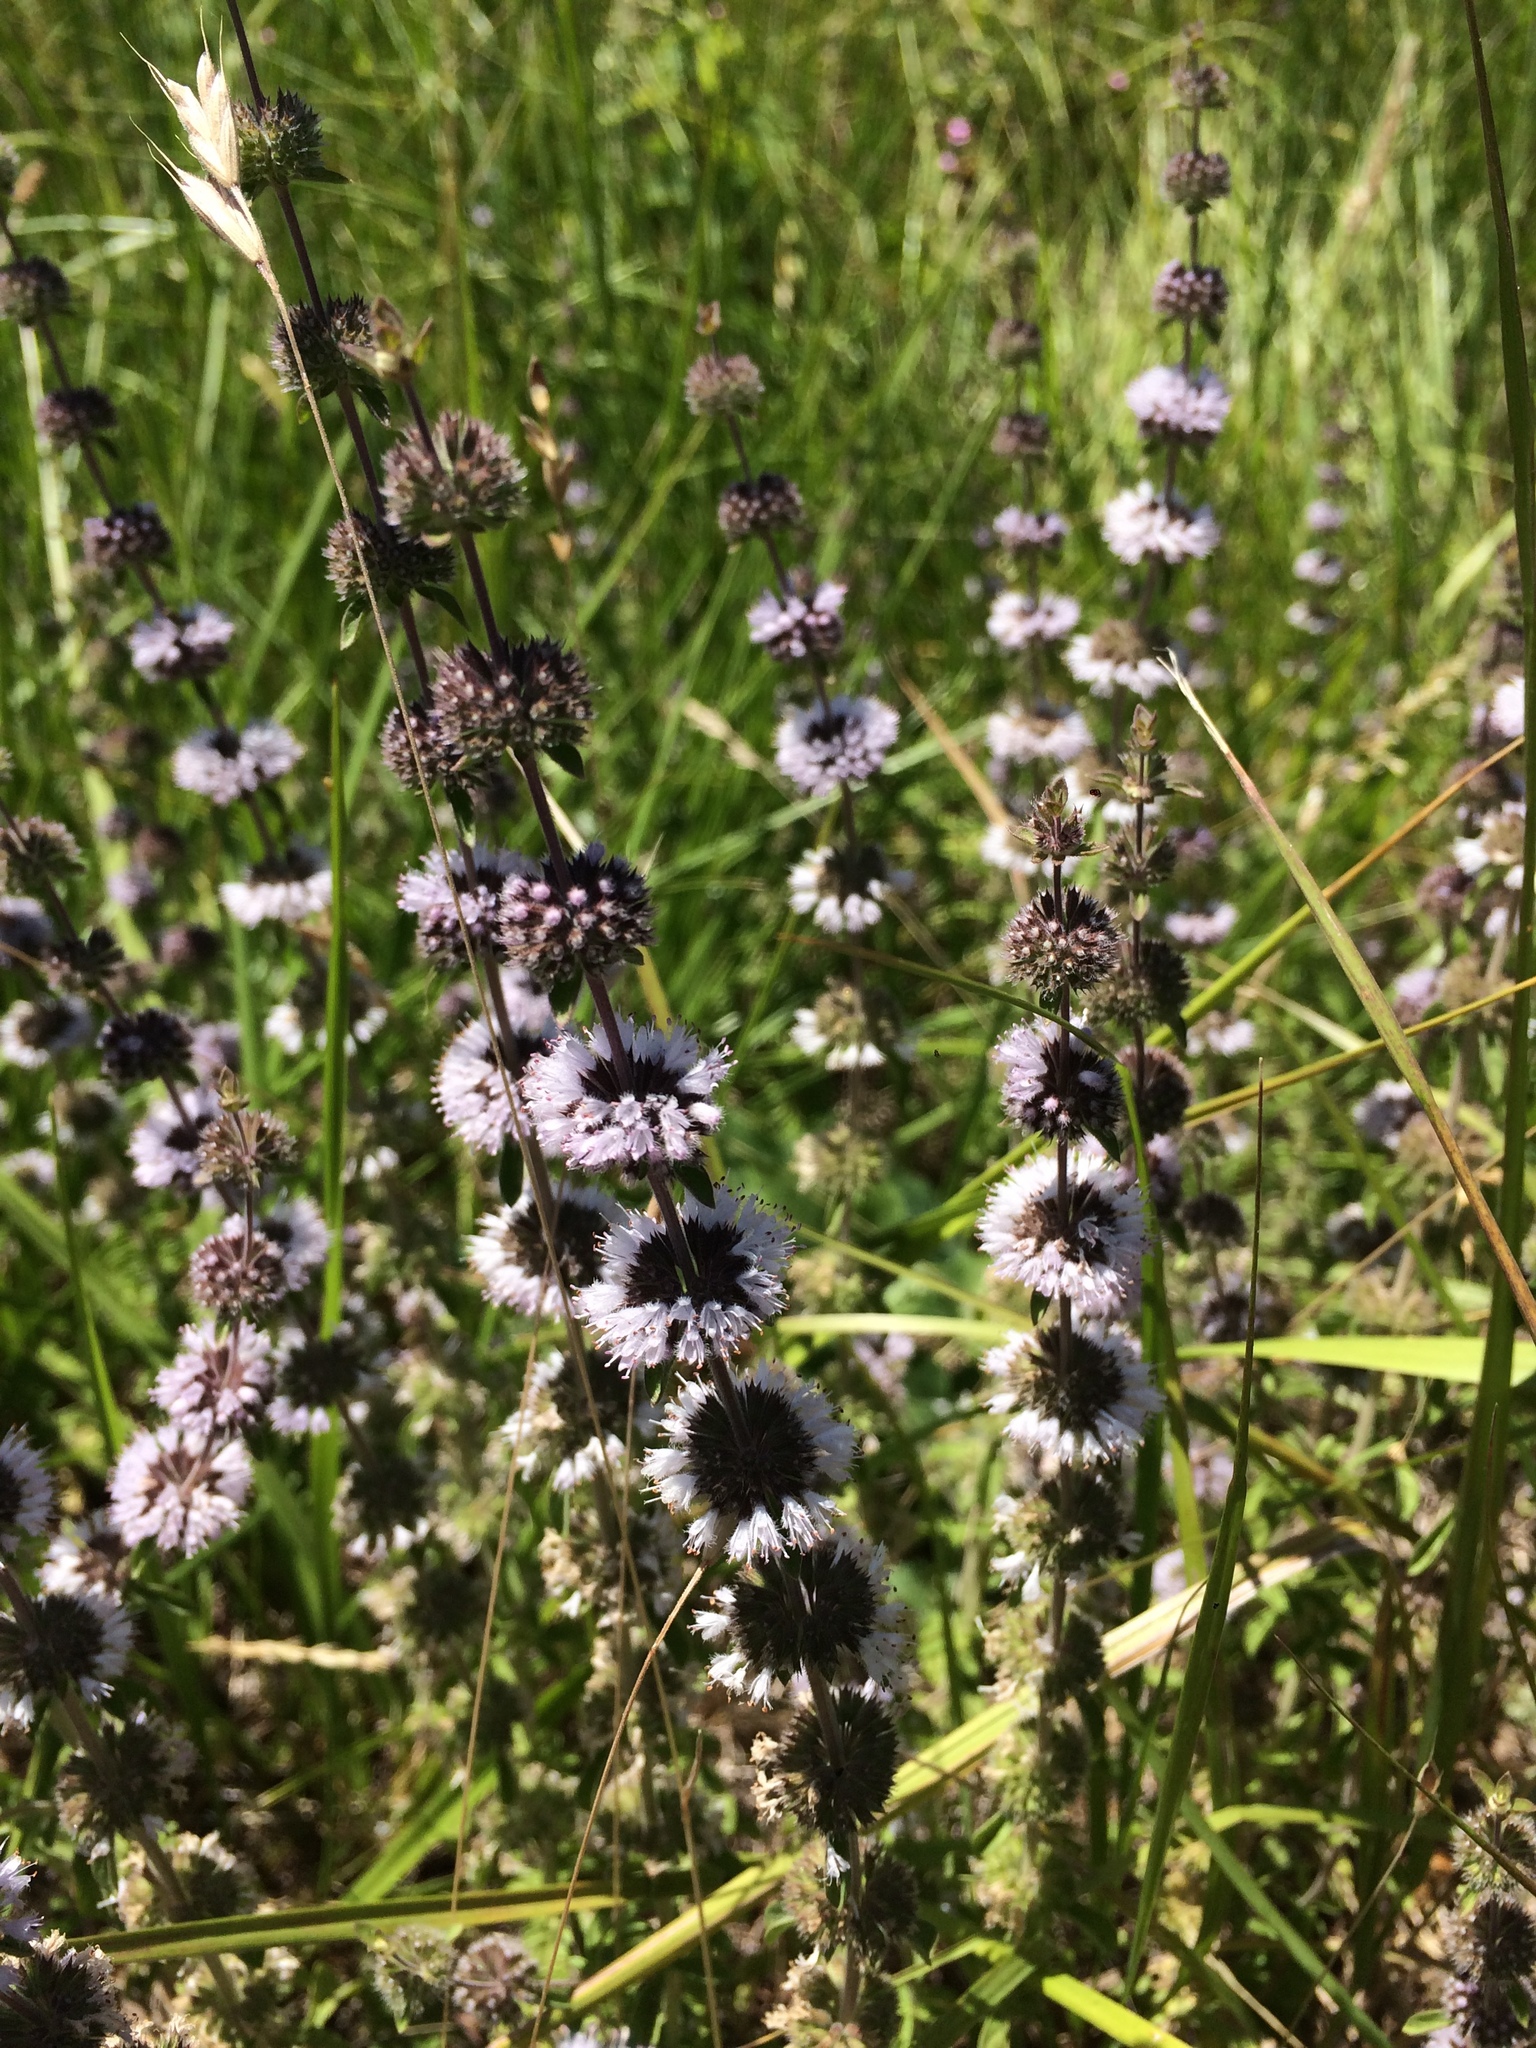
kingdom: Plantae
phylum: Tracheophyta
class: Magnoliopsida
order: Lamiales
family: Lamiaceae
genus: Mentha
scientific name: Mentha pulegium
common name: Pennyroyal
